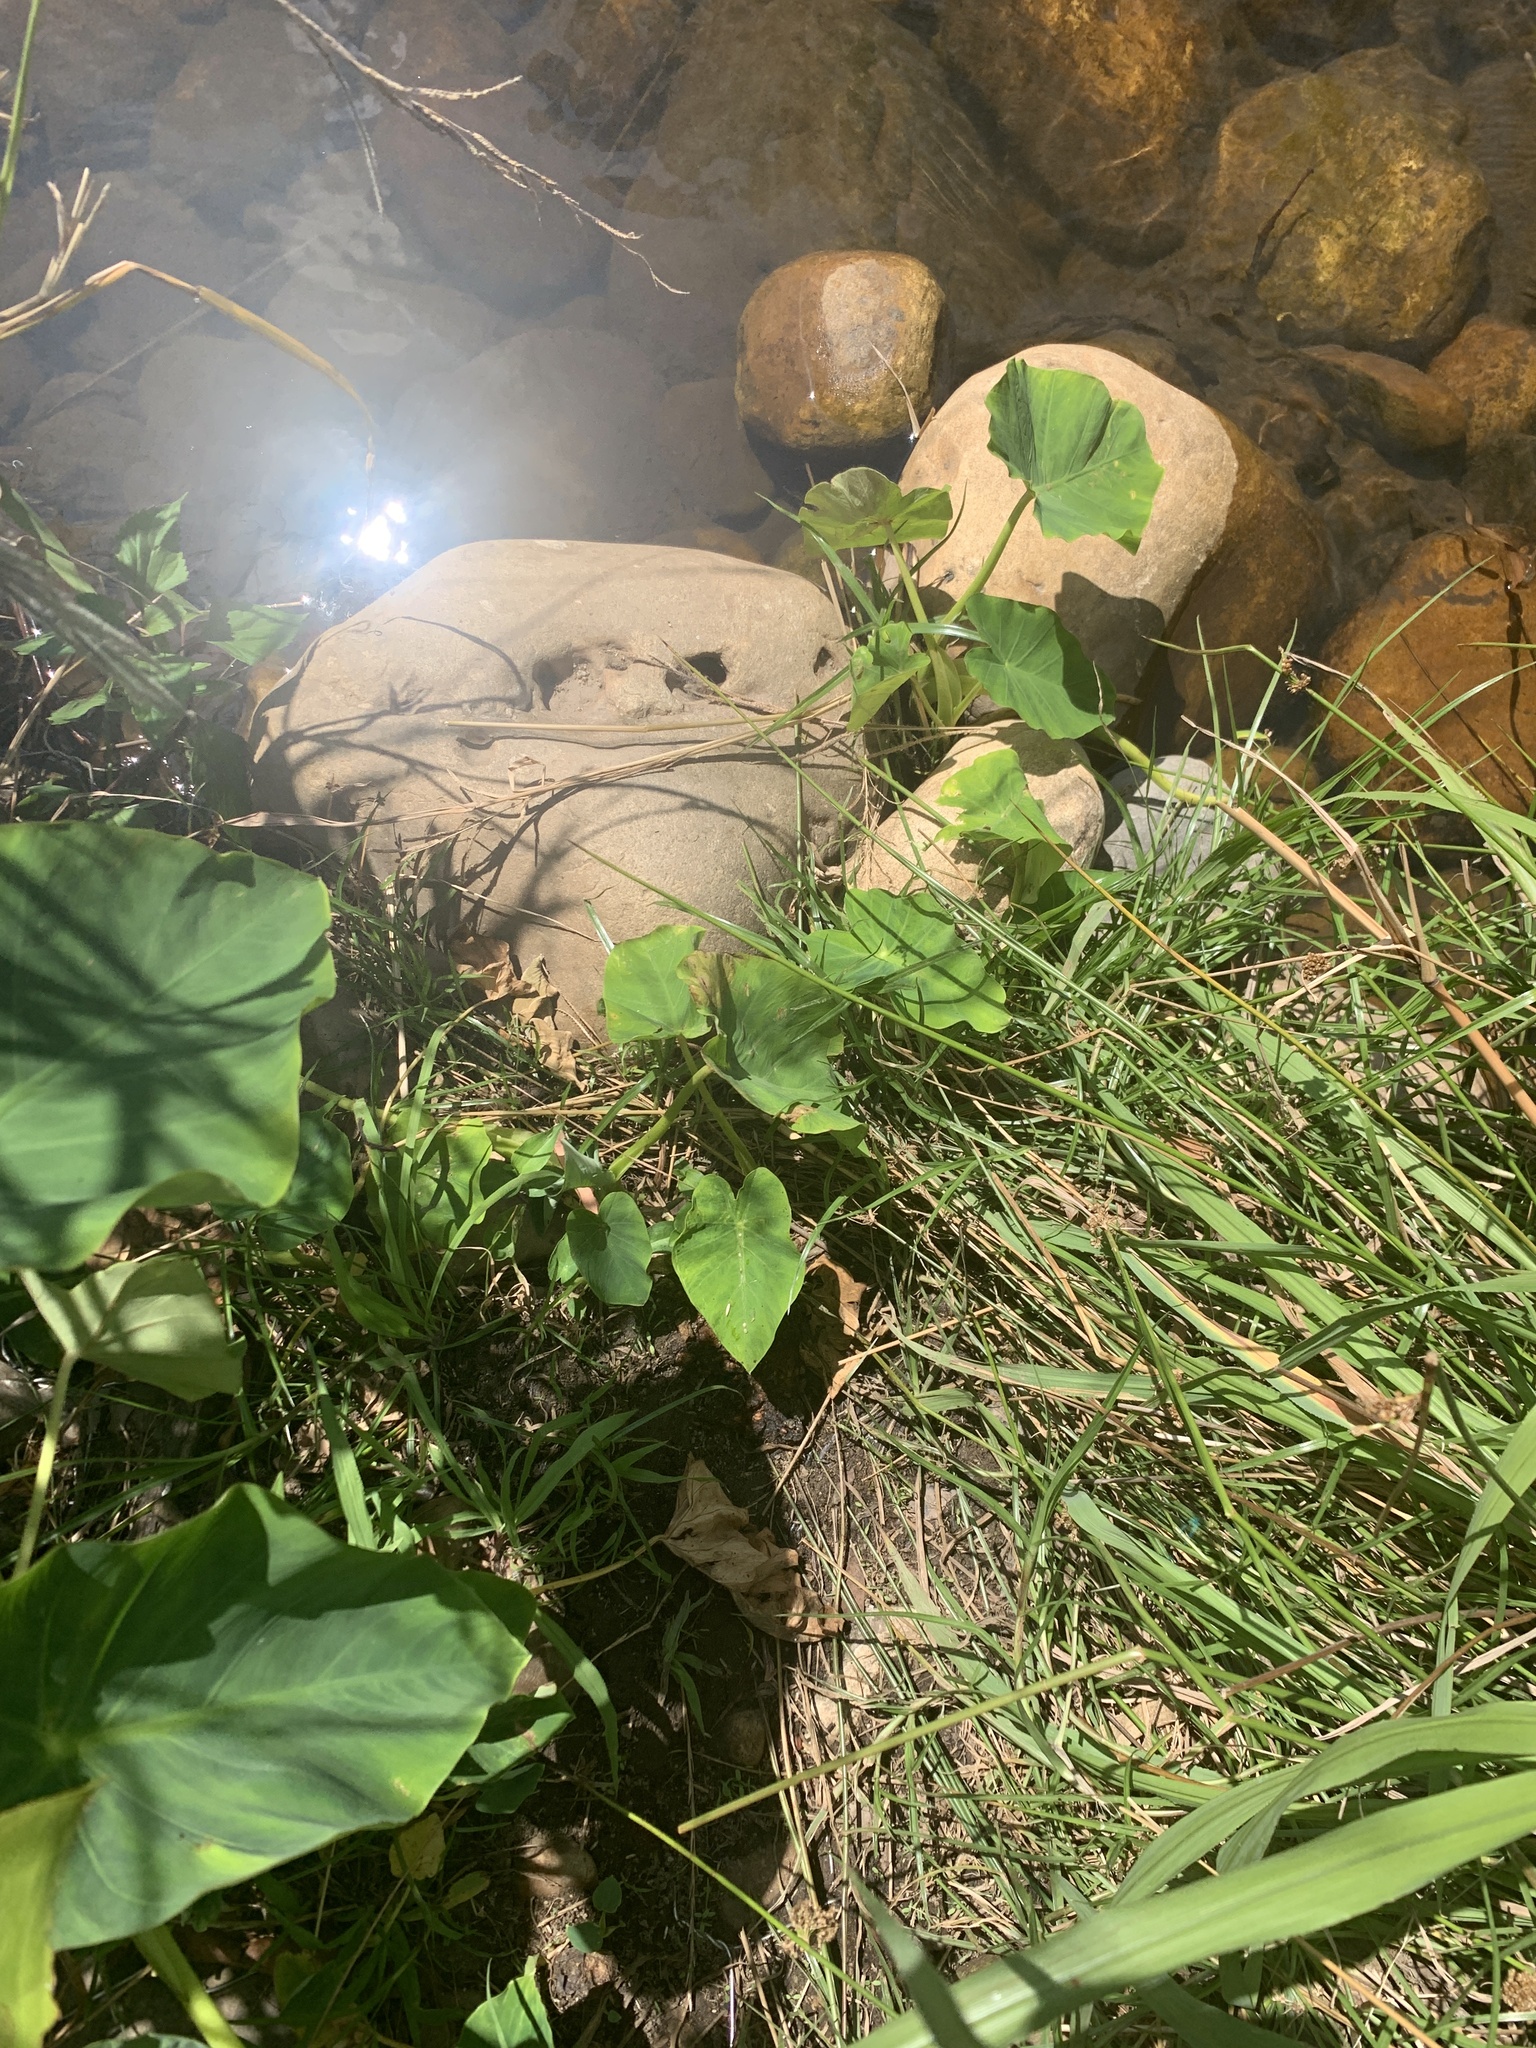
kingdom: Plantae
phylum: Tracheophyta
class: Liliopsida
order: Alismatales
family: Araceae
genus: Colocasia
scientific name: Colocasia esculenta
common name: Taro
